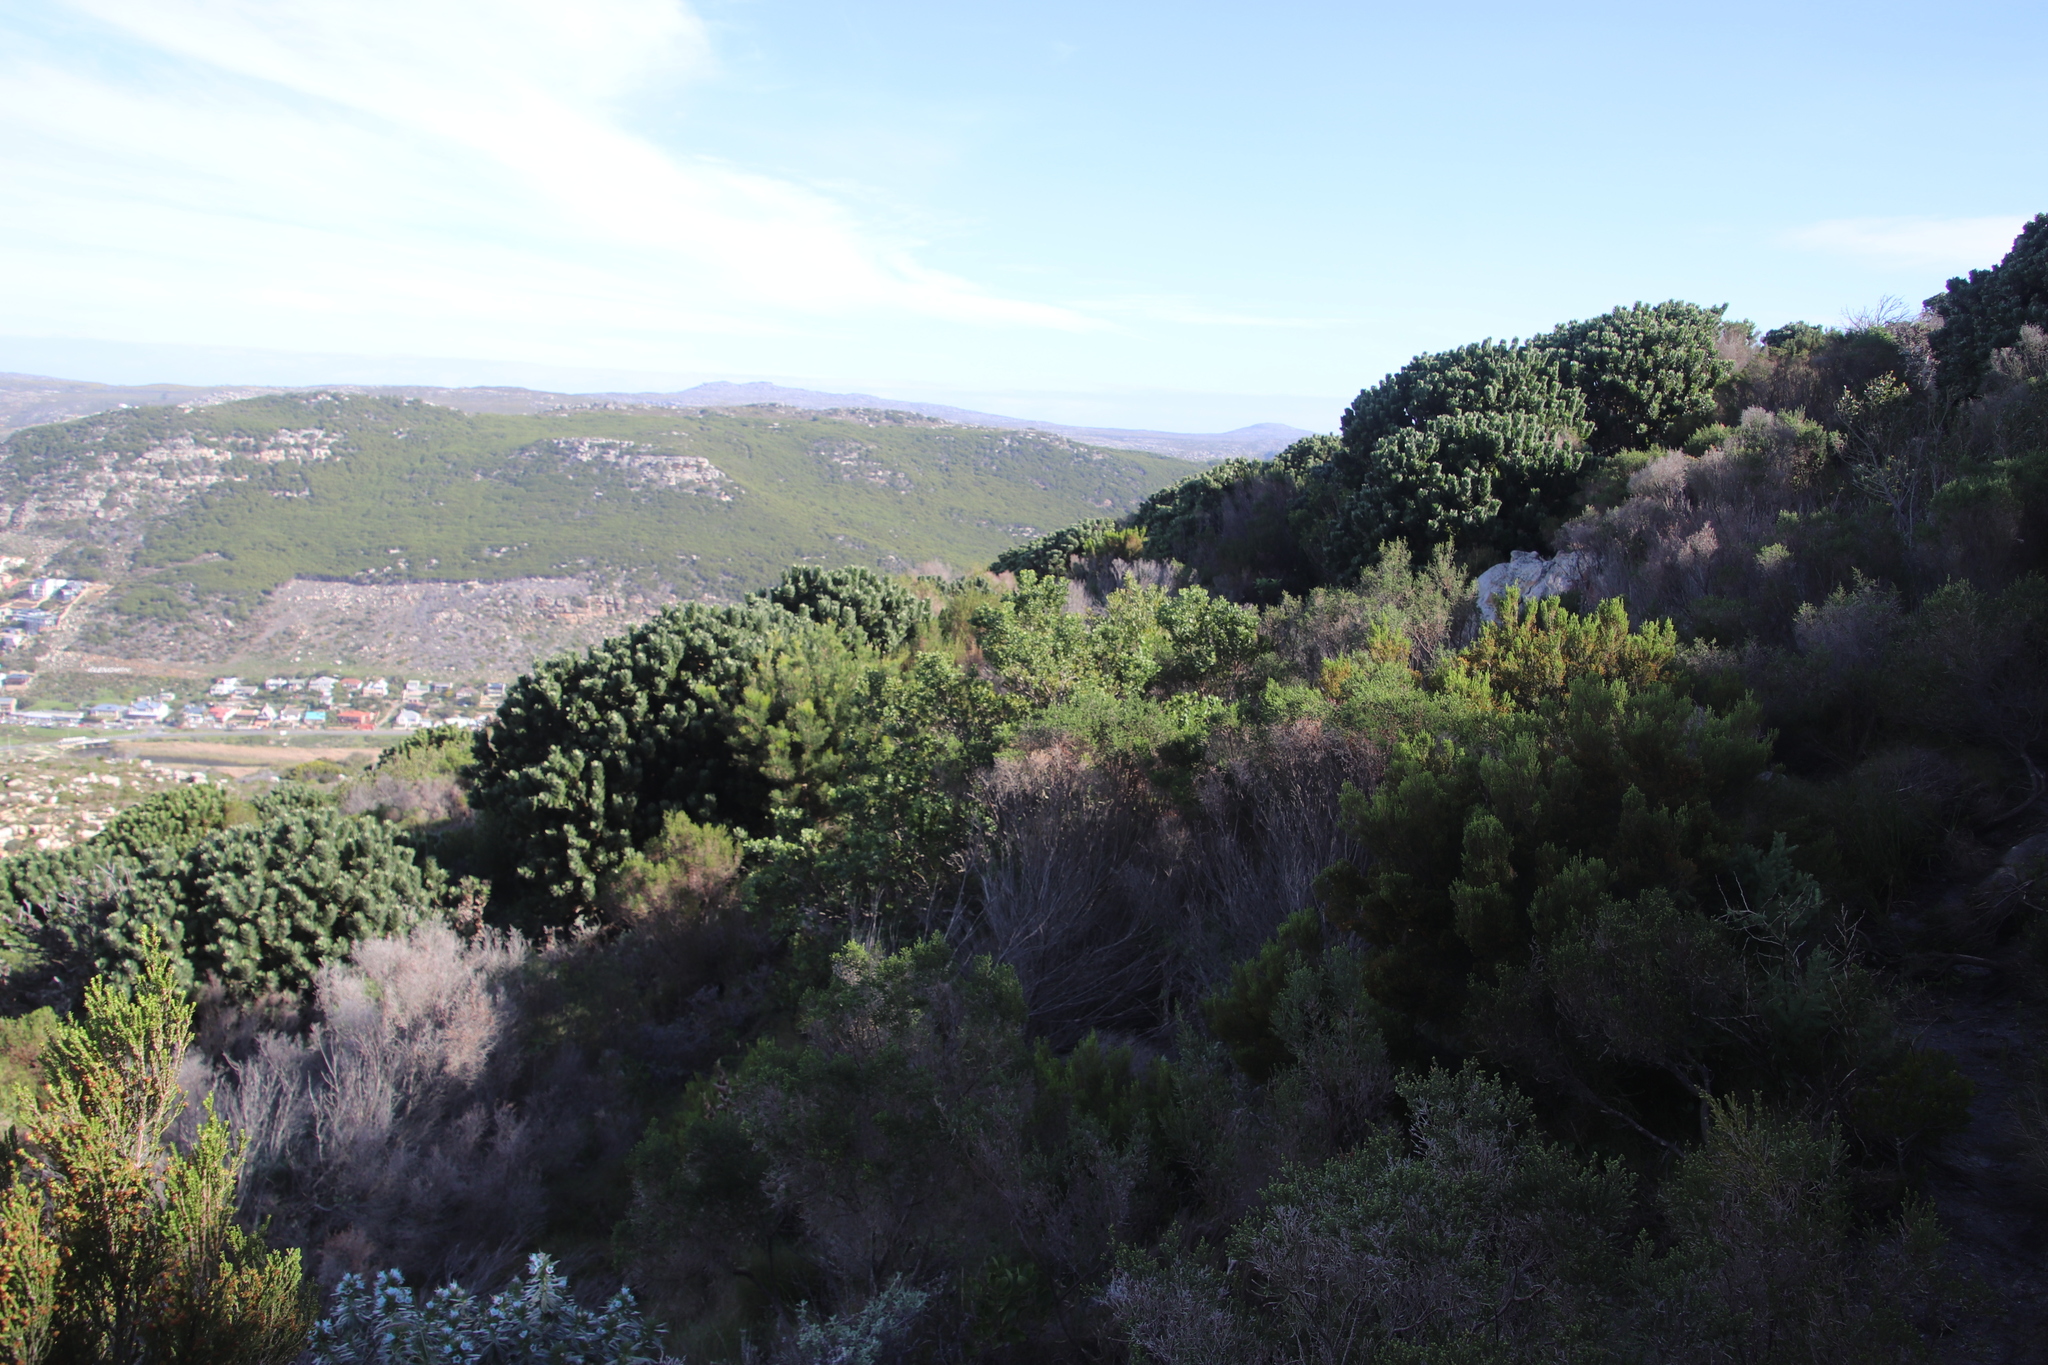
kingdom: Plantae
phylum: Tracheophyta
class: Magnoliopsida
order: Proteales
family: Proteaceae
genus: Leucospermum
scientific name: Leucospermum conocarpodendron
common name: Tree pincushion
